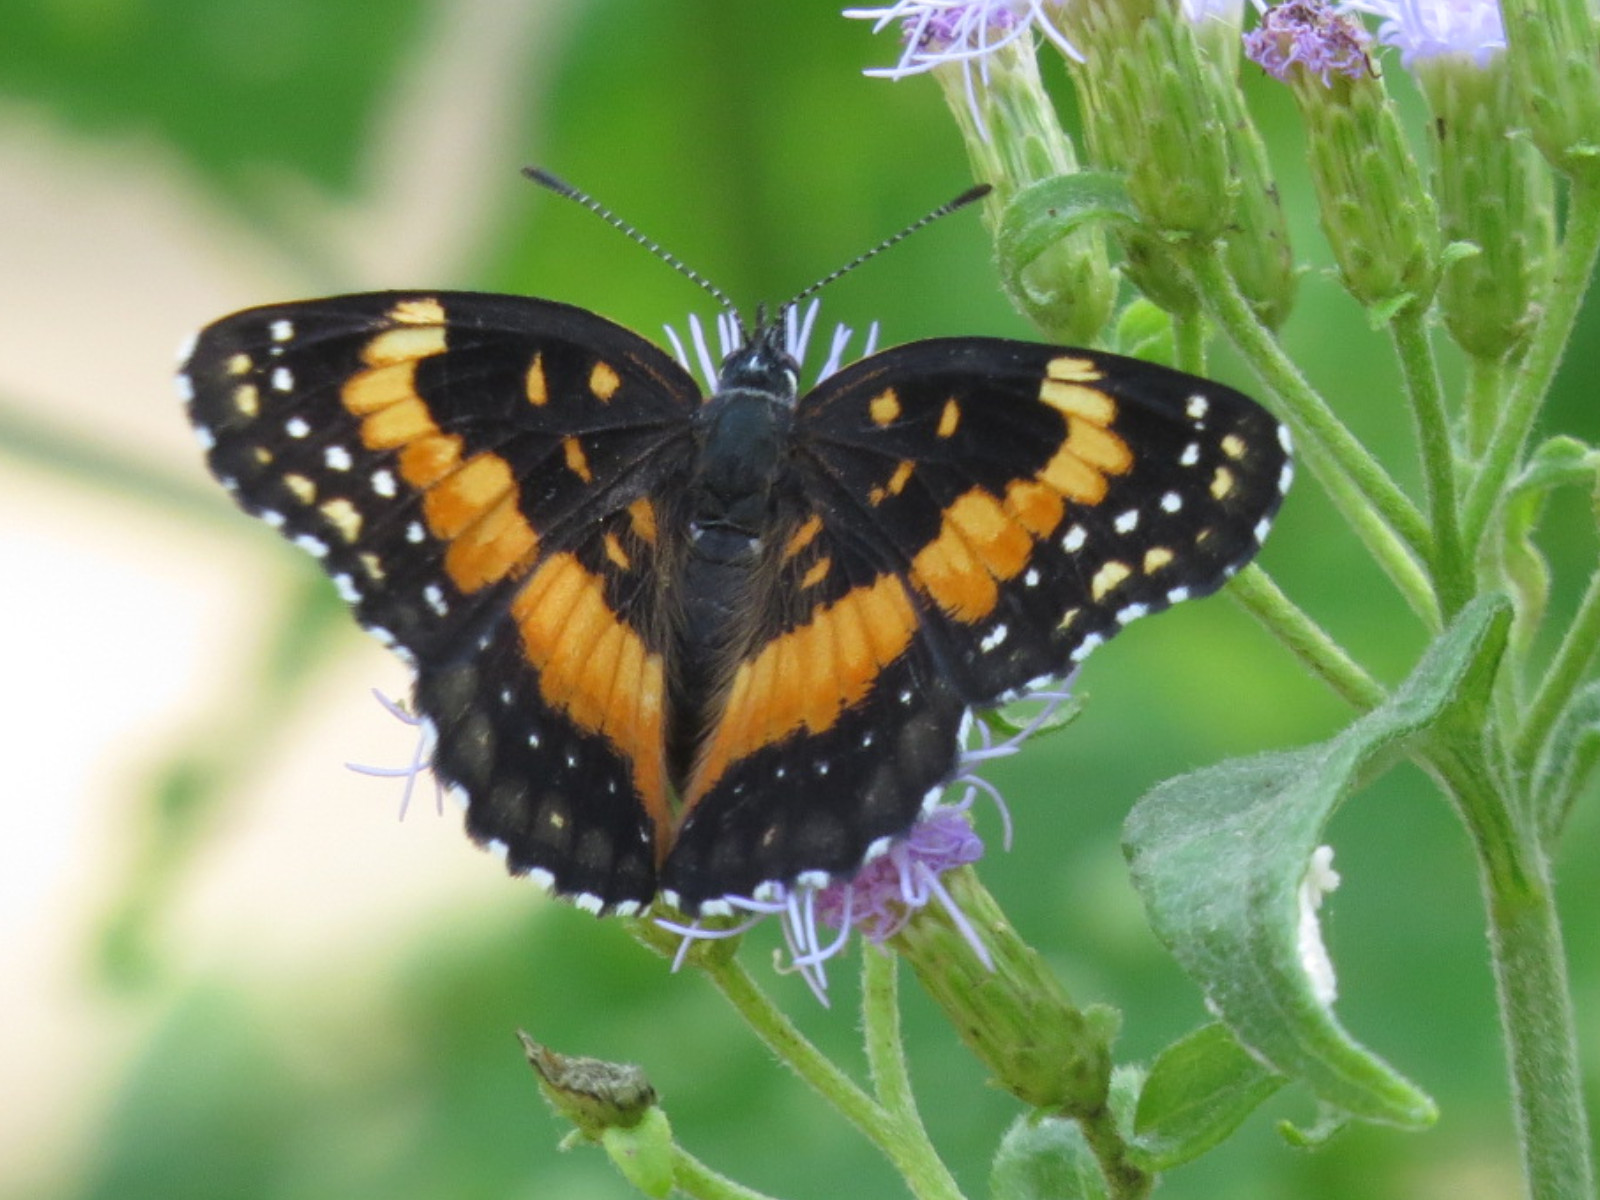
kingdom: Animalia
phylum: Arthropoda
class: Insecta
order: Lepidoptera
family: Nymphalidae
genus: Chlosyne
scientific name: Chlosyne lacinia
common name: Bordered patch
